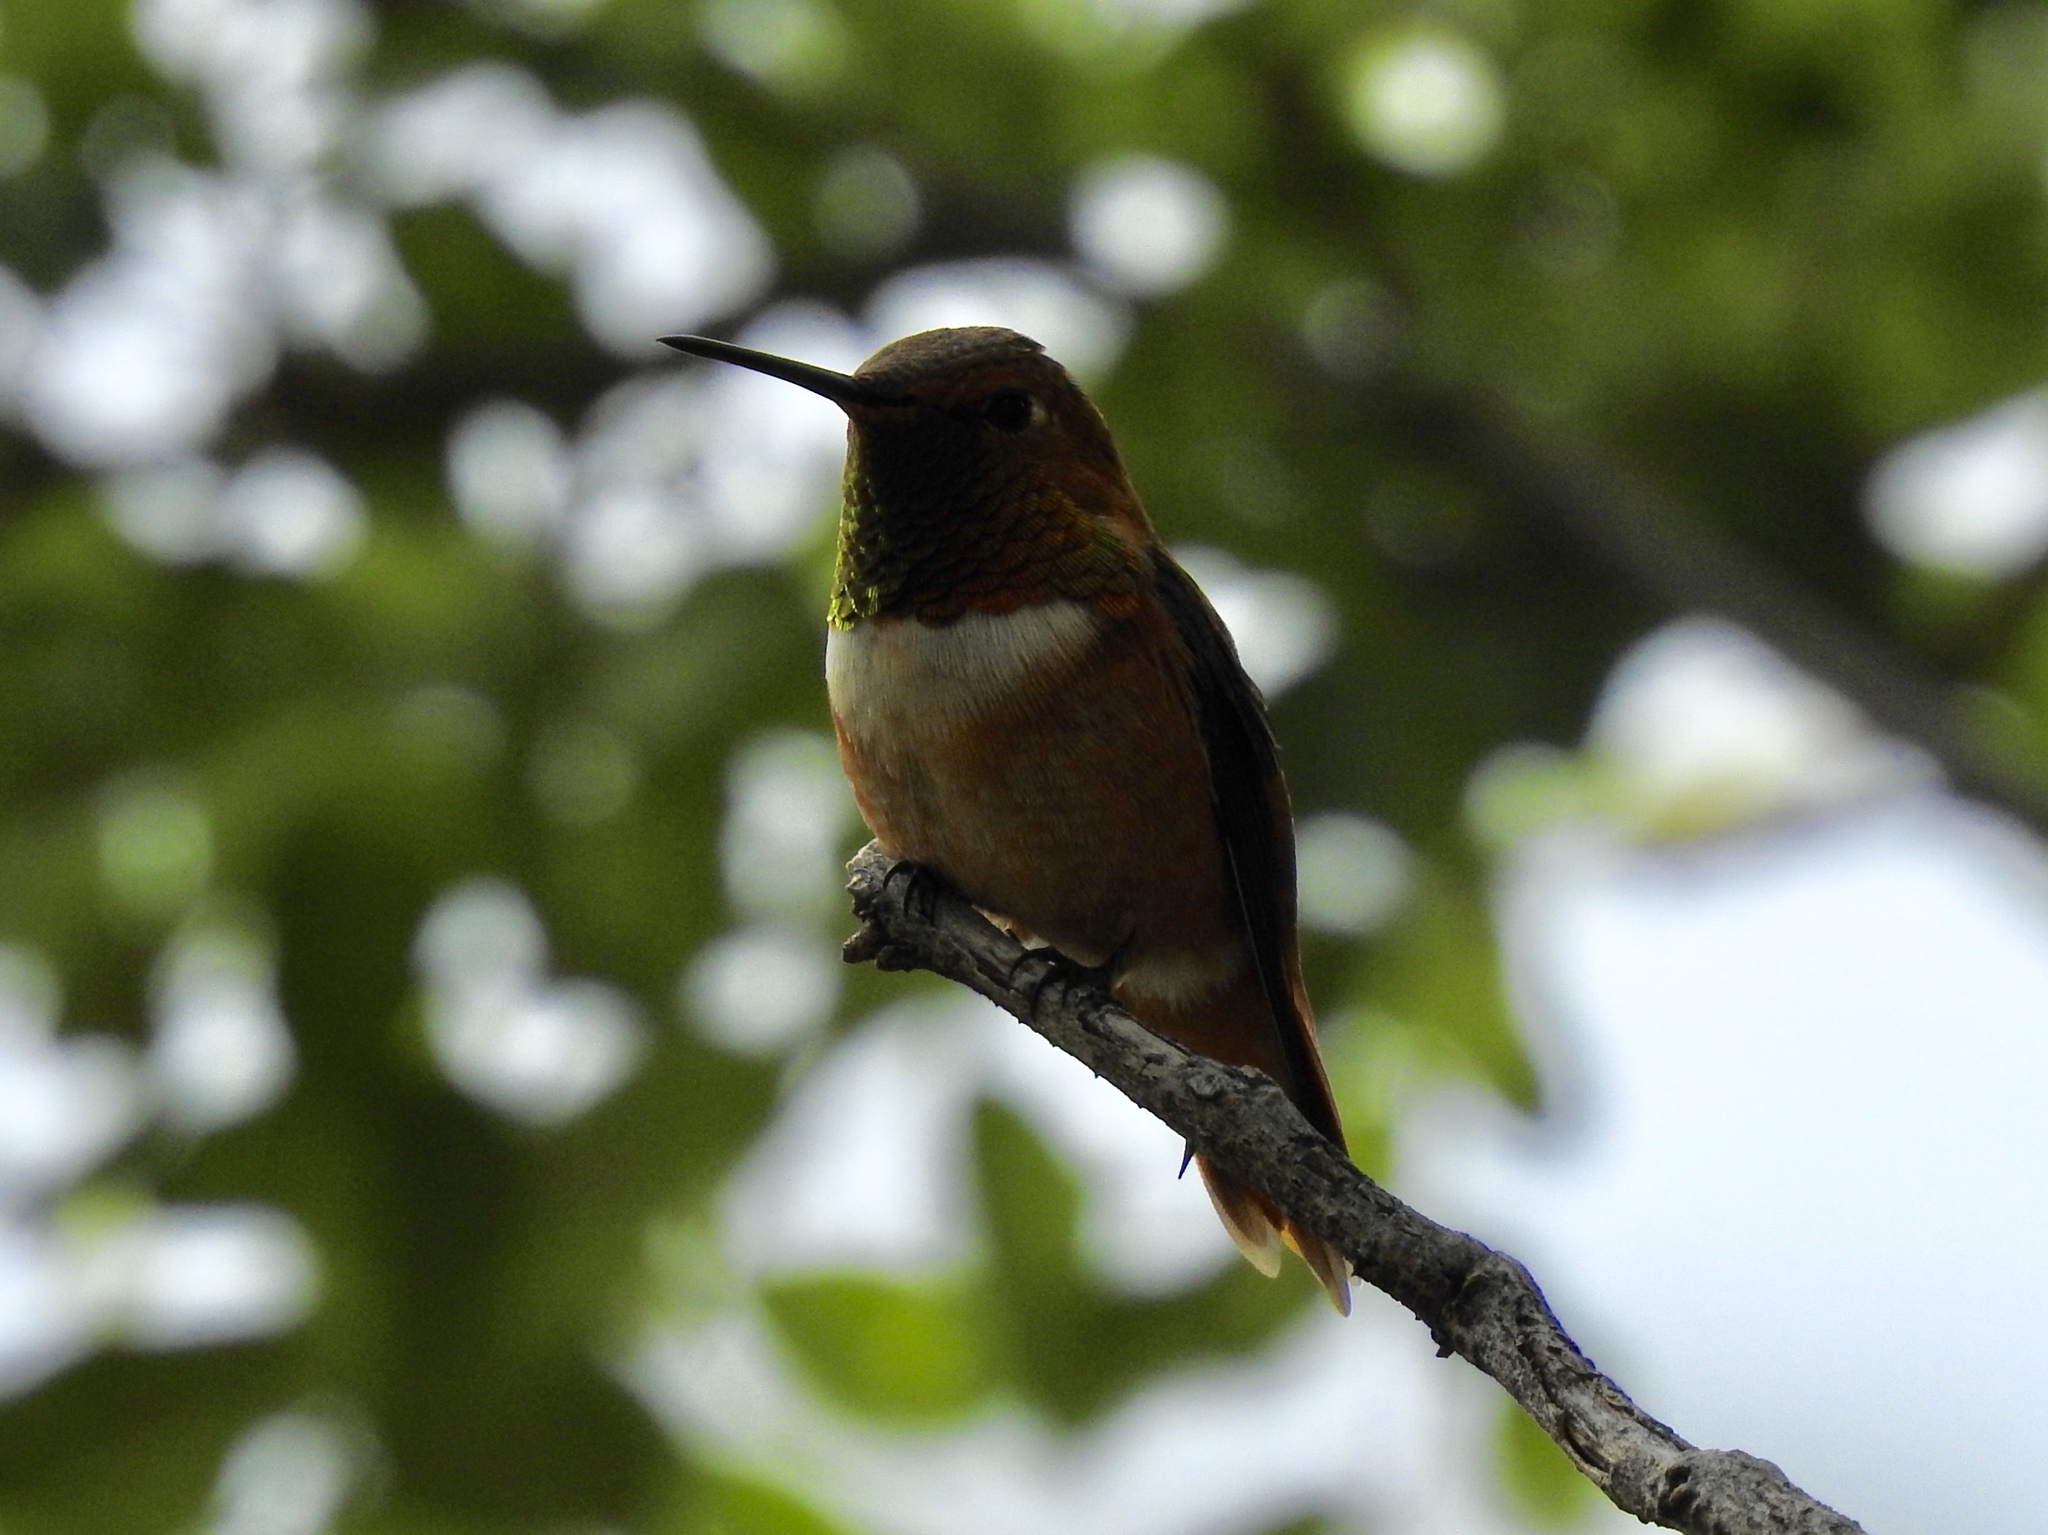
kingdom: Animalia
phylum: Chordata
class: Aves
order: Apodiformes
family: Trochilidae
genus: Selasphorus
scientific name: Selasphorus rufus
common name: Rufous hummingbird
